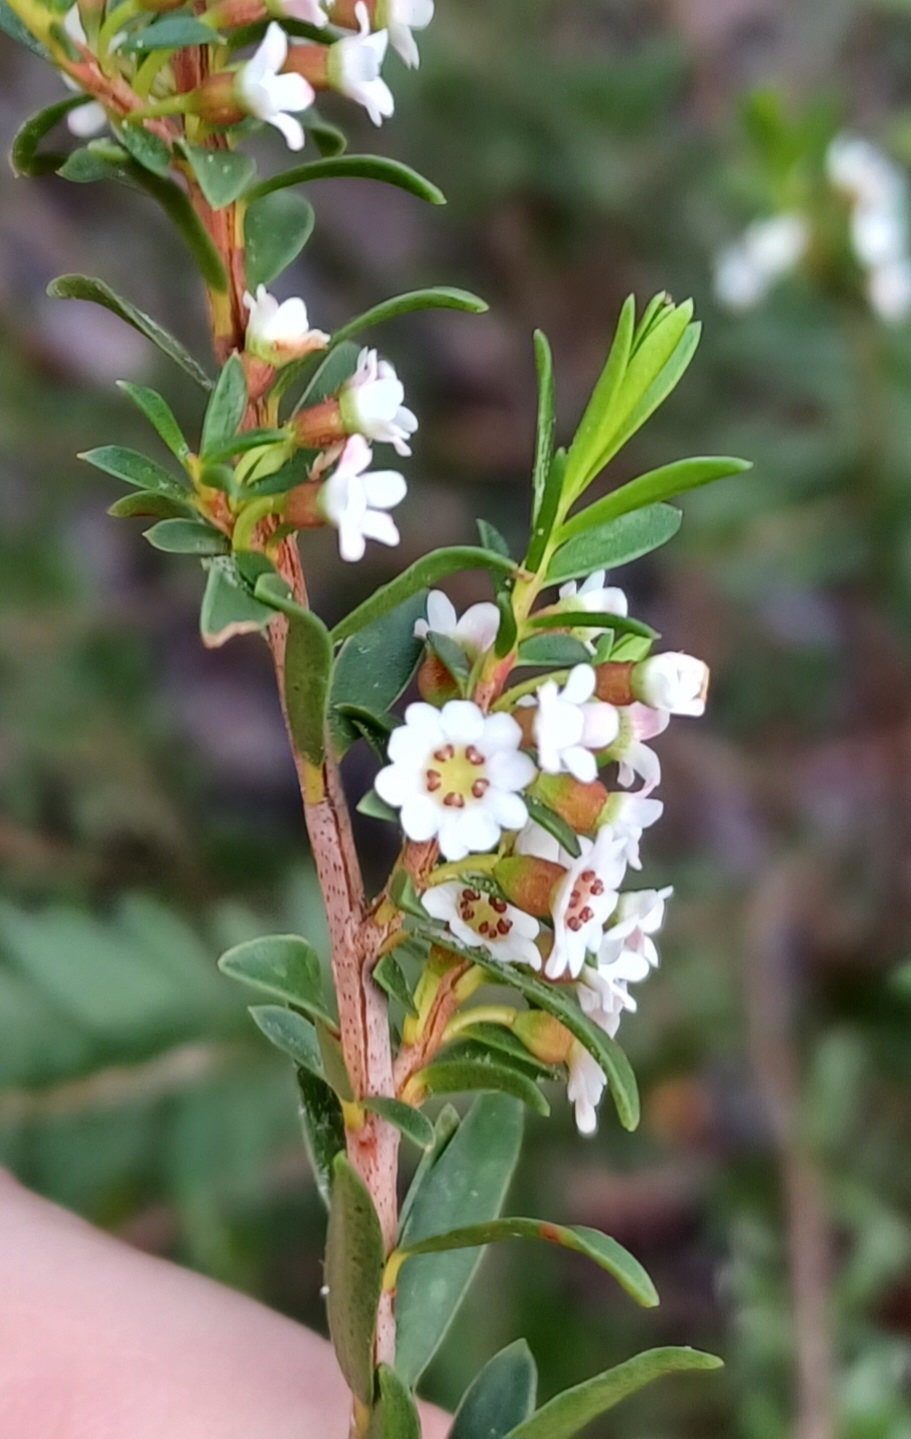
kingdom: Plantae
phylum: Tracheophyta
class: Magnoliopsida
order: Myrtales
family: Myrtaceae
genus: Thryptomene
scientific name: Thryptomene calycina
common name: Grampians thryptomene
